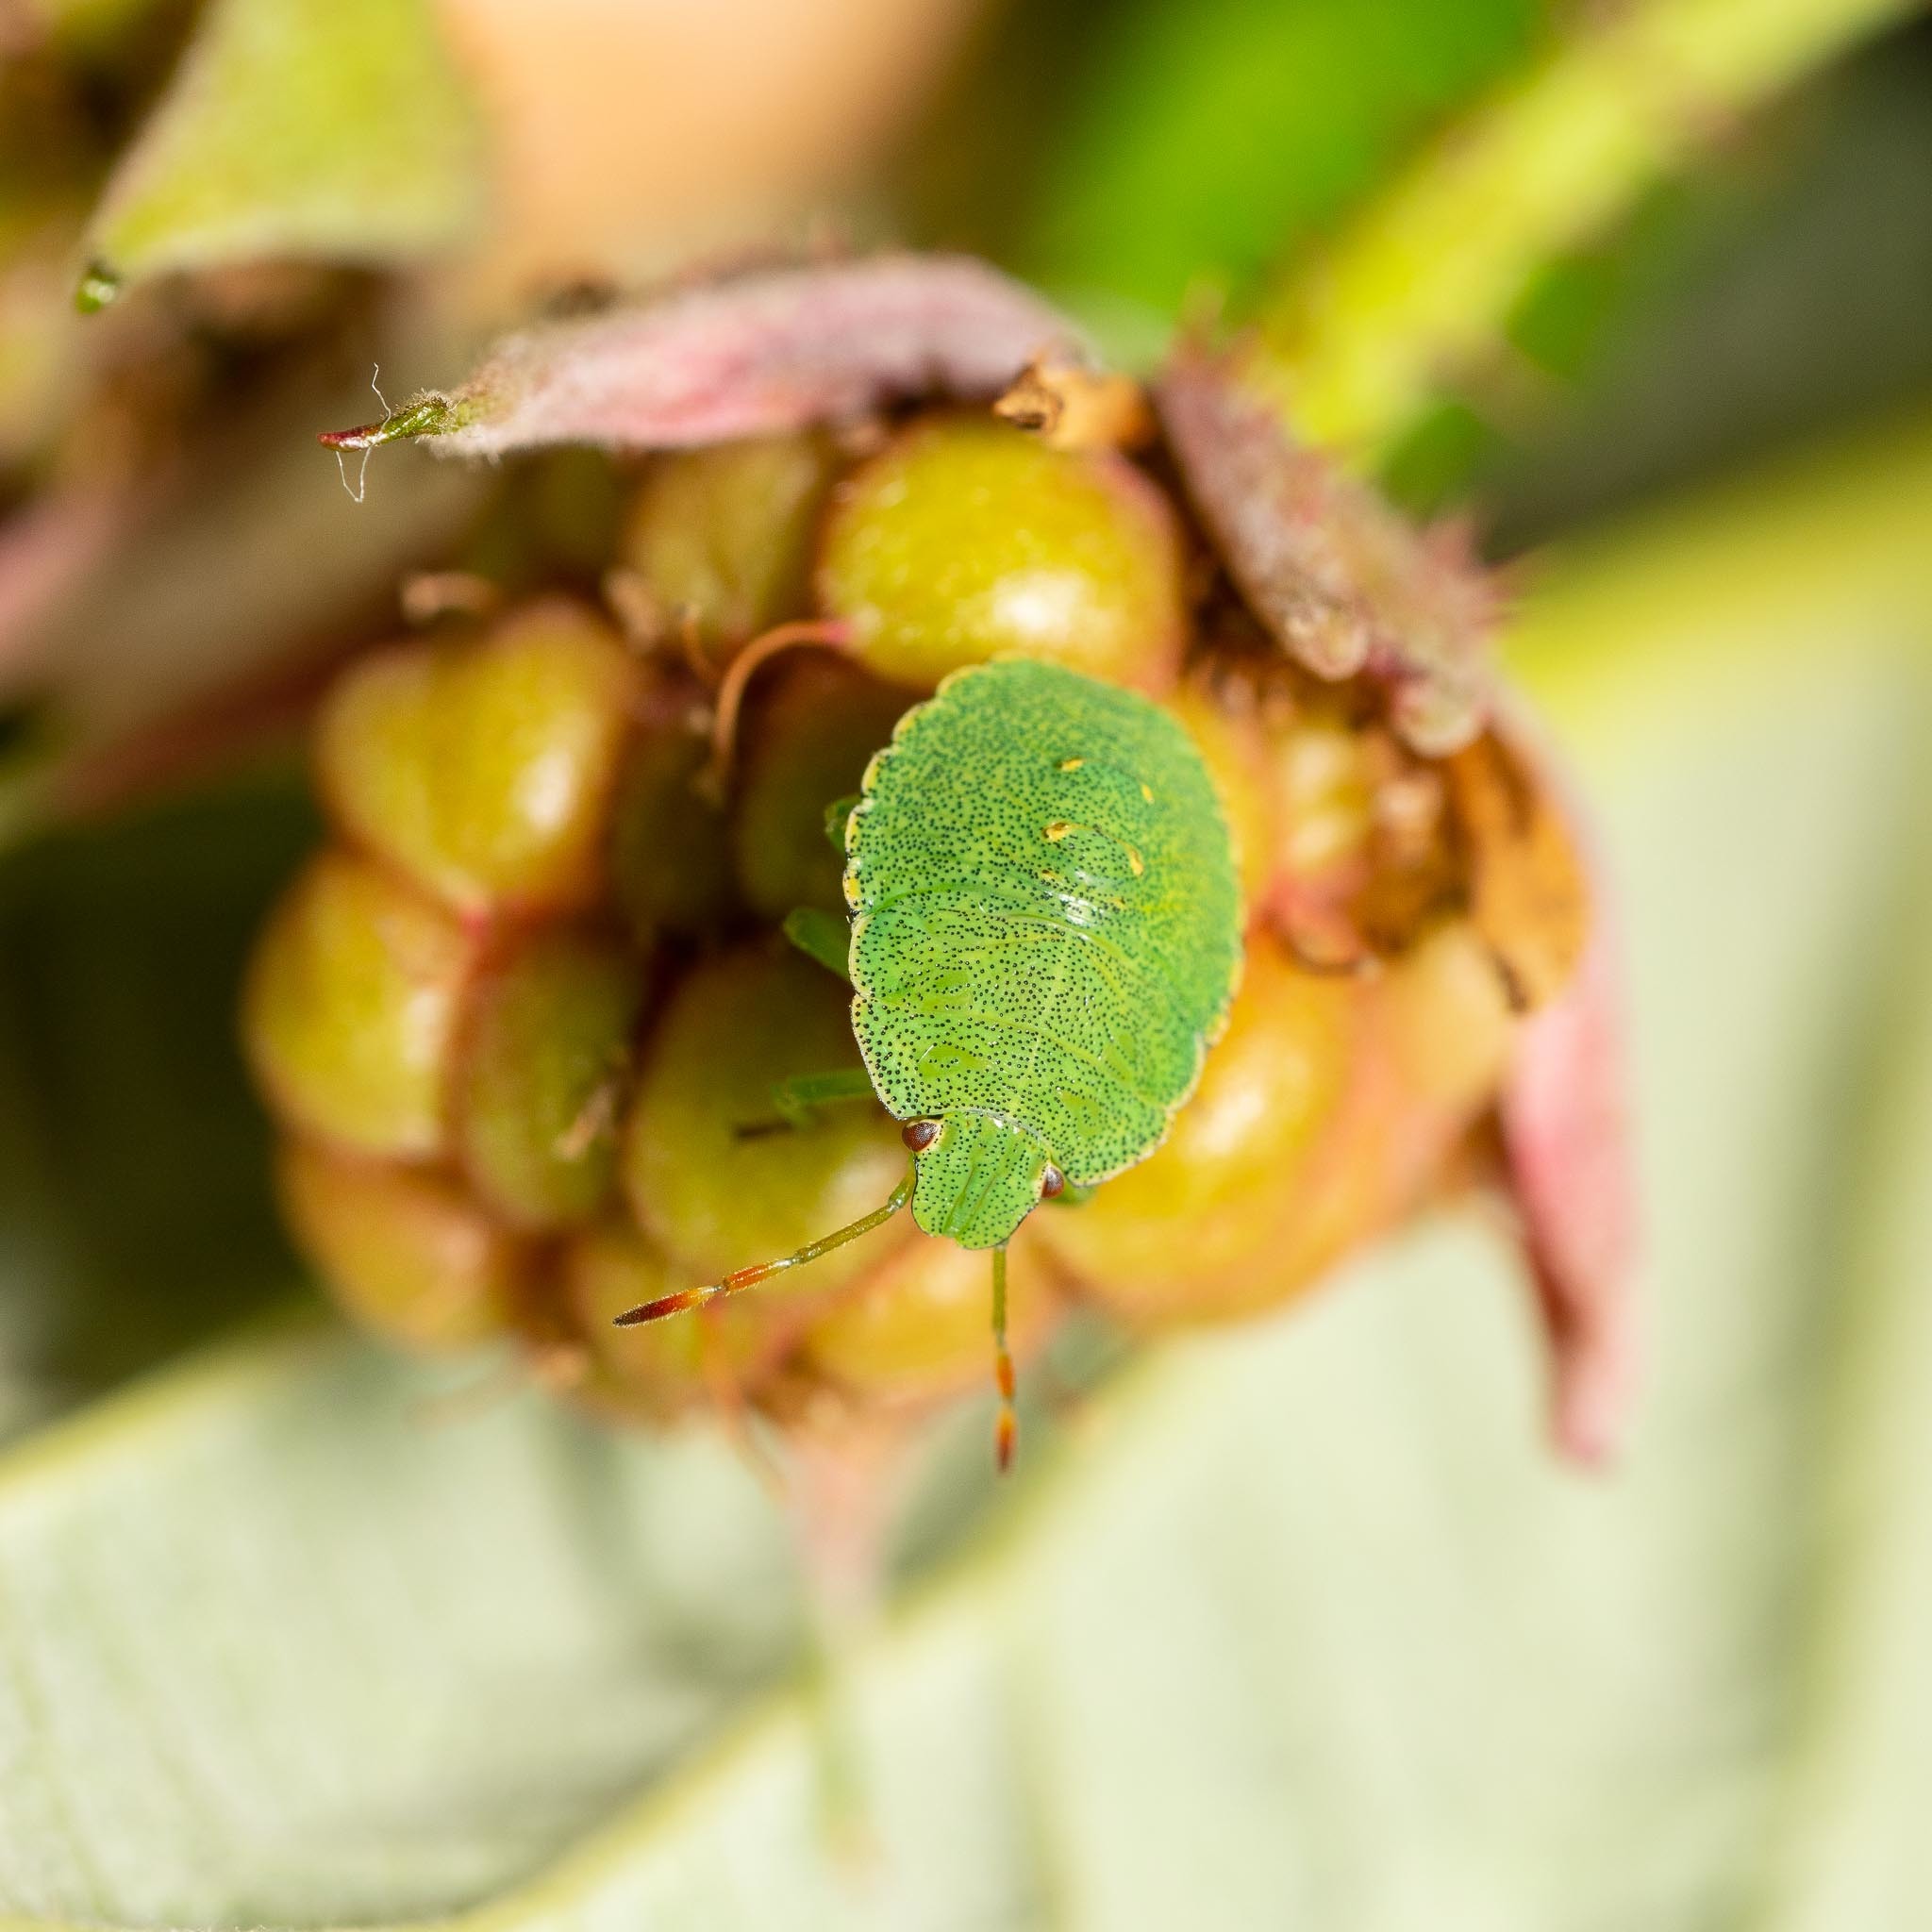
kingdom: Animalia
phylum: Arthropoda
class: Insecta
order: Hemiptera
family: Pentatomidae
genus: Palomena
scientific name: Palomena prasina
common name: Green shieldbug
